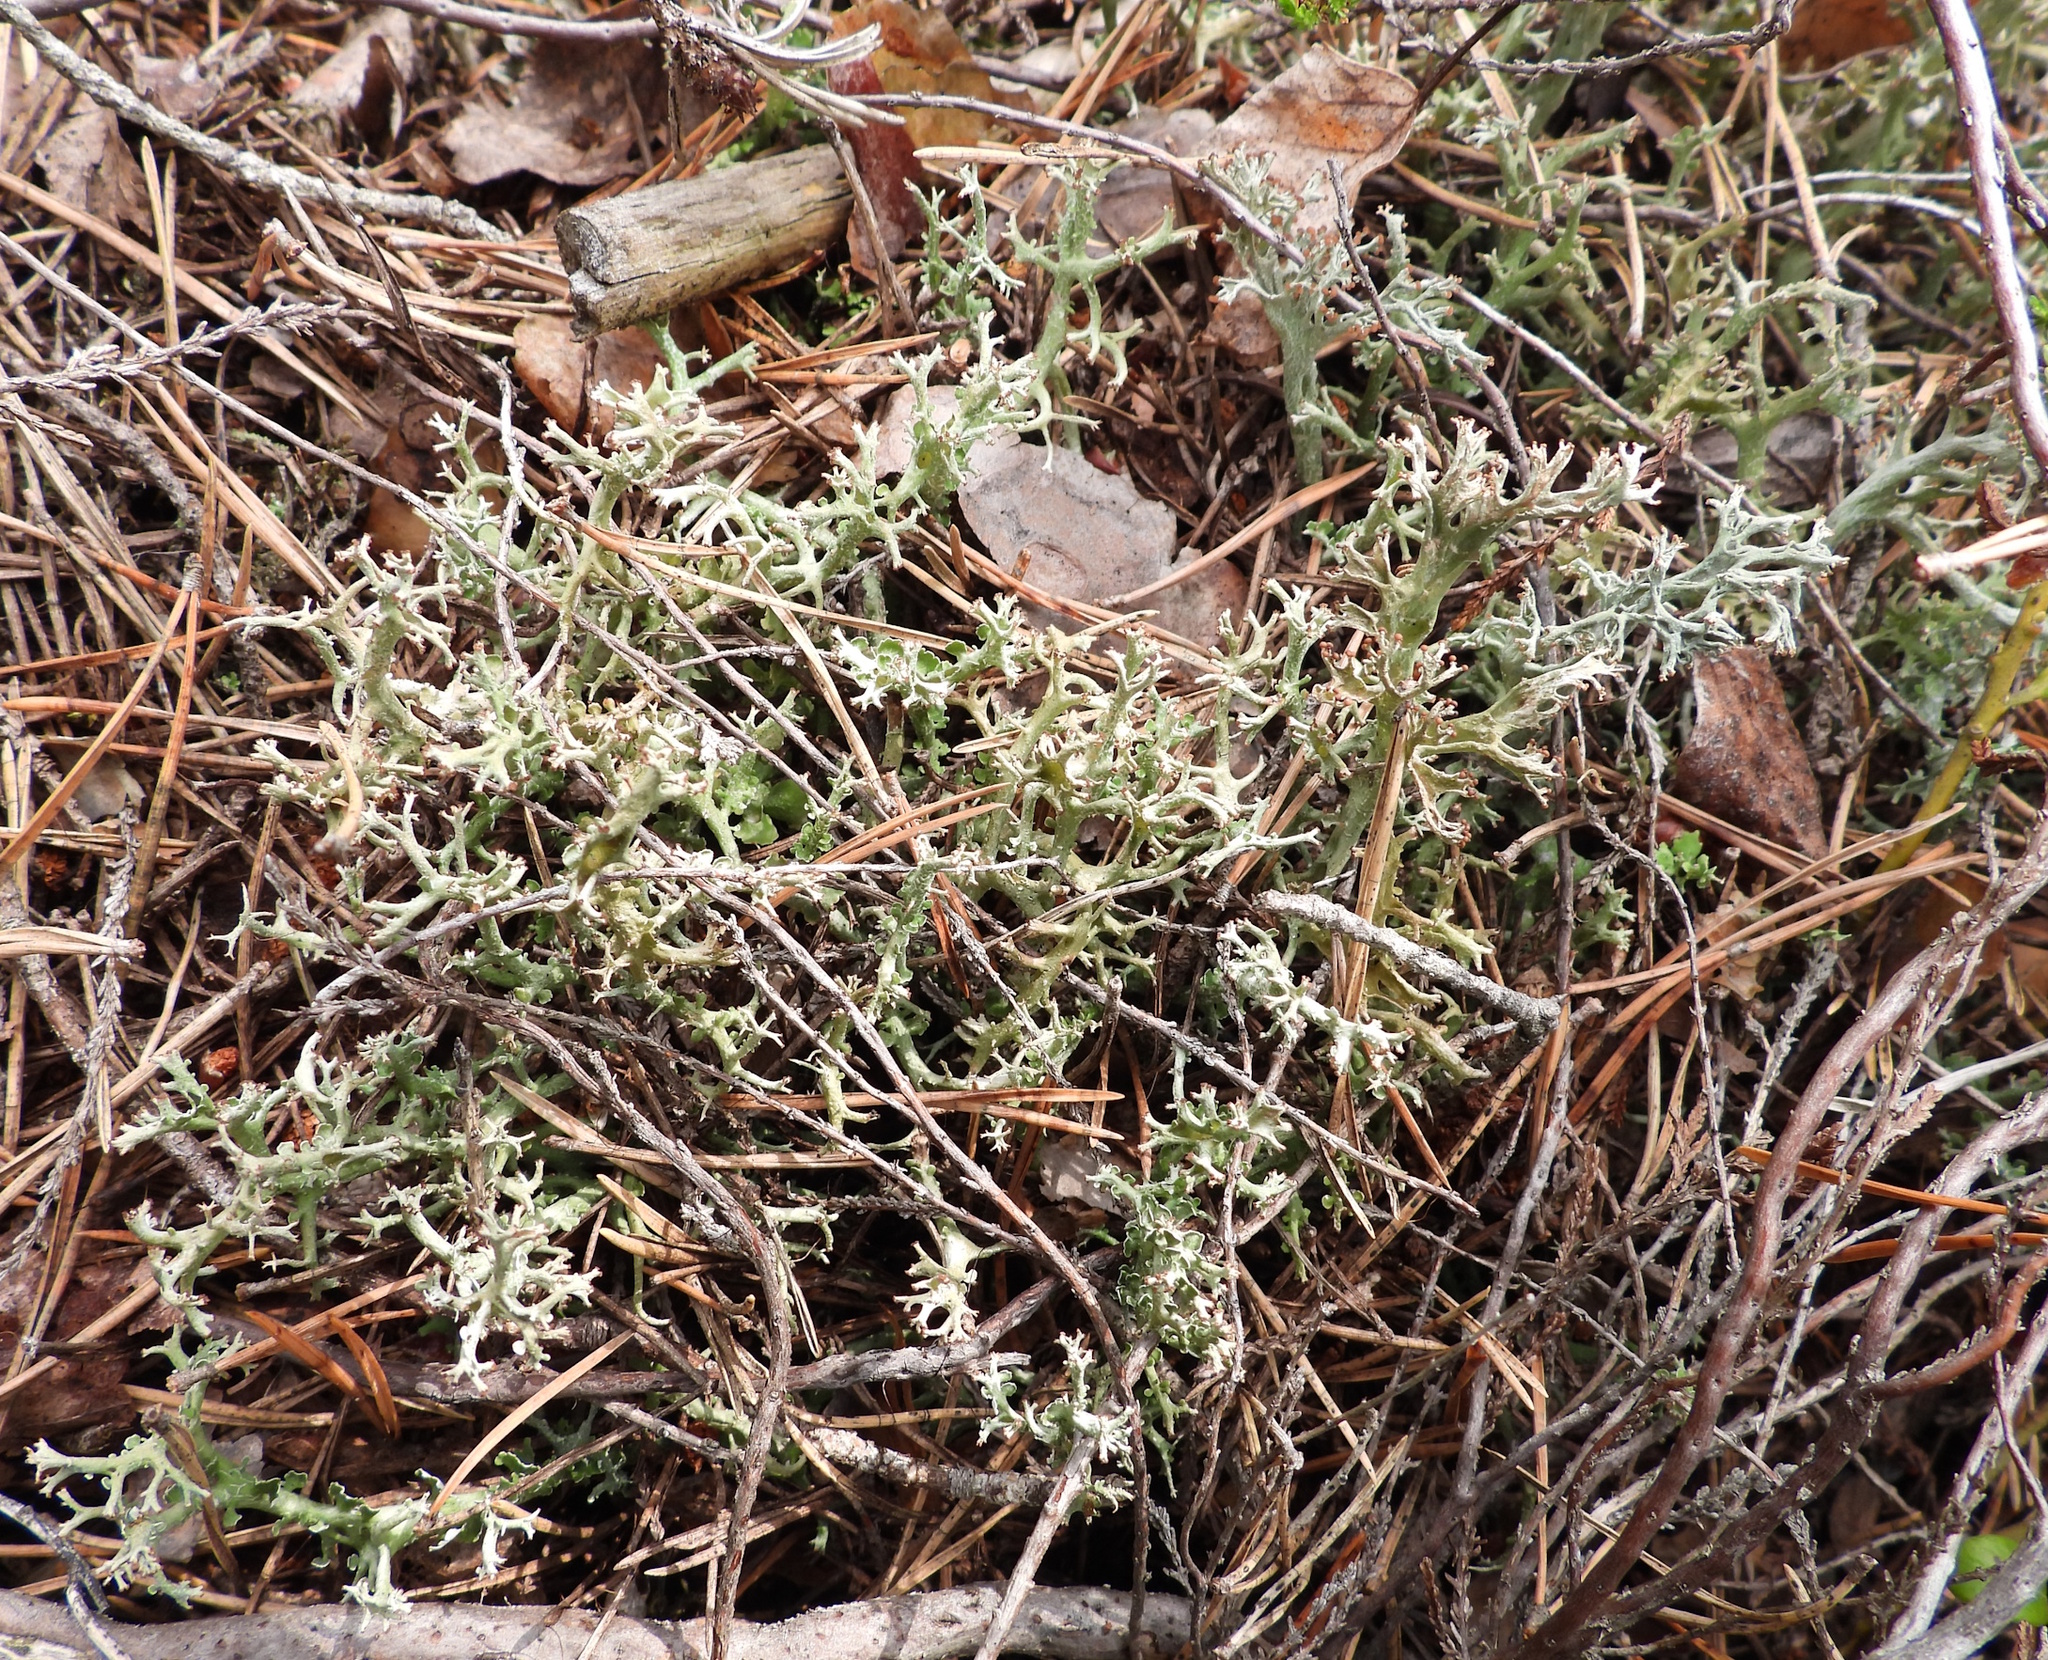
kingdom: Fungi
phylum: Ascomycota
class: Lecanoromycetes
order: Lecanorales
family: Cladoniaceae
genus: Cladonia
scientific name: Cladonia furcata
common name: Many-forked cladonia
